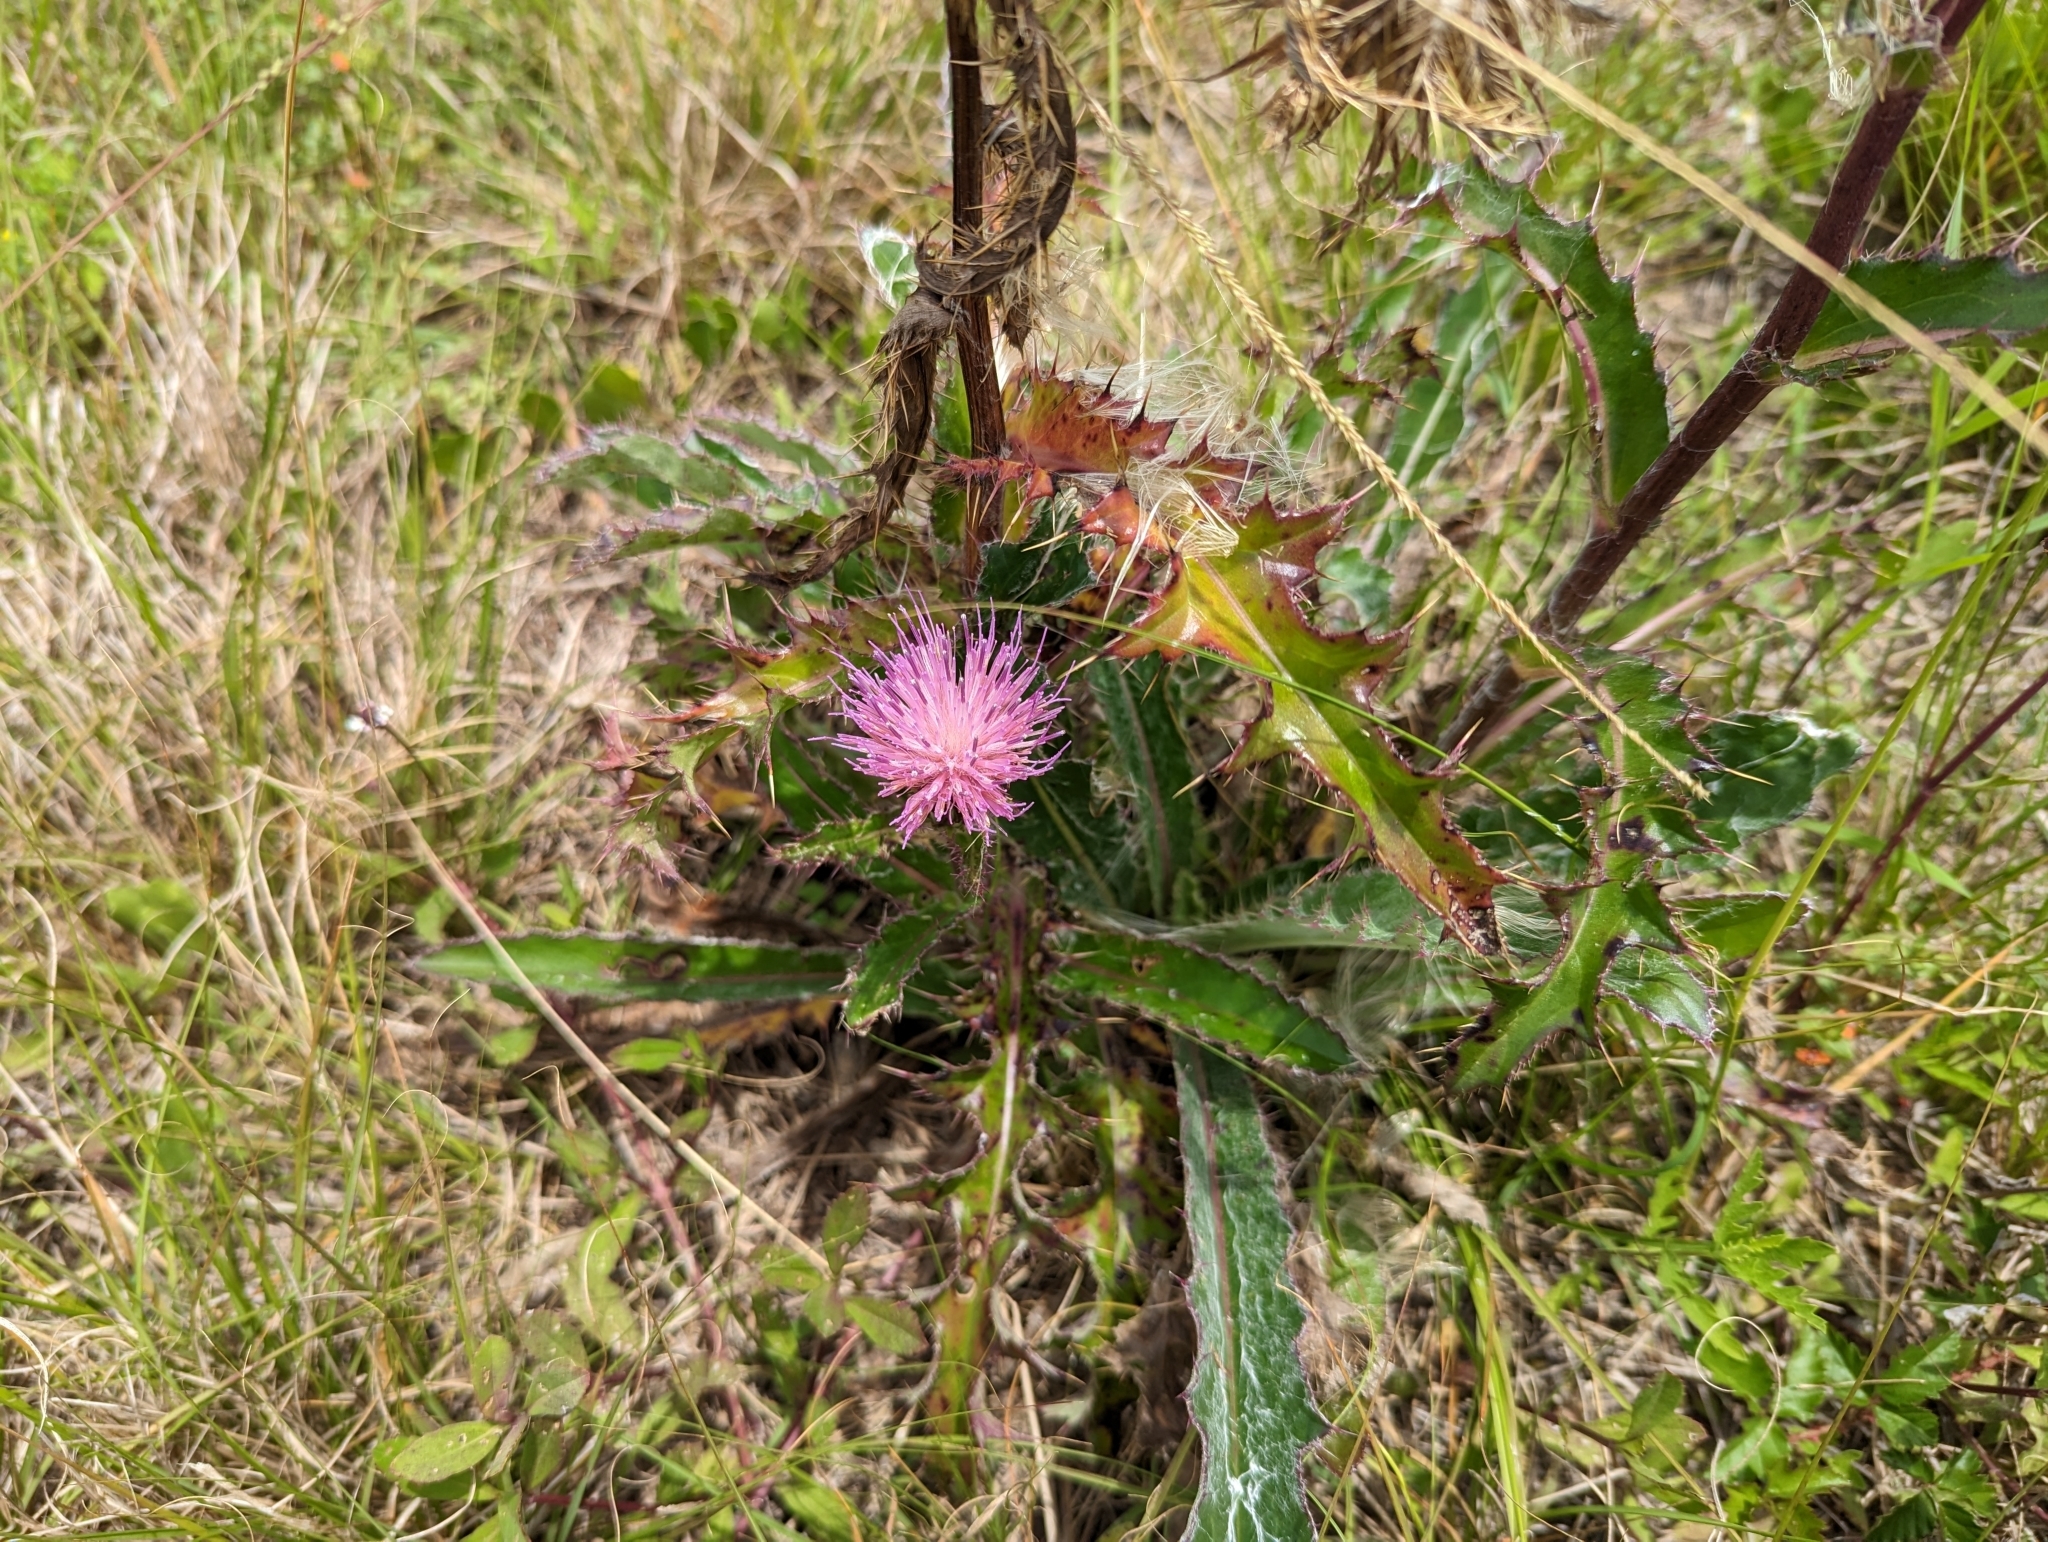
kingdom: Plantae
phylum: Tracheophyta
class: Magnoliopsida
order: Asterales
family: Asteraceae
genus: Cirsium
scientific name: Cirsium horridulum
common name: Bristly thistle
